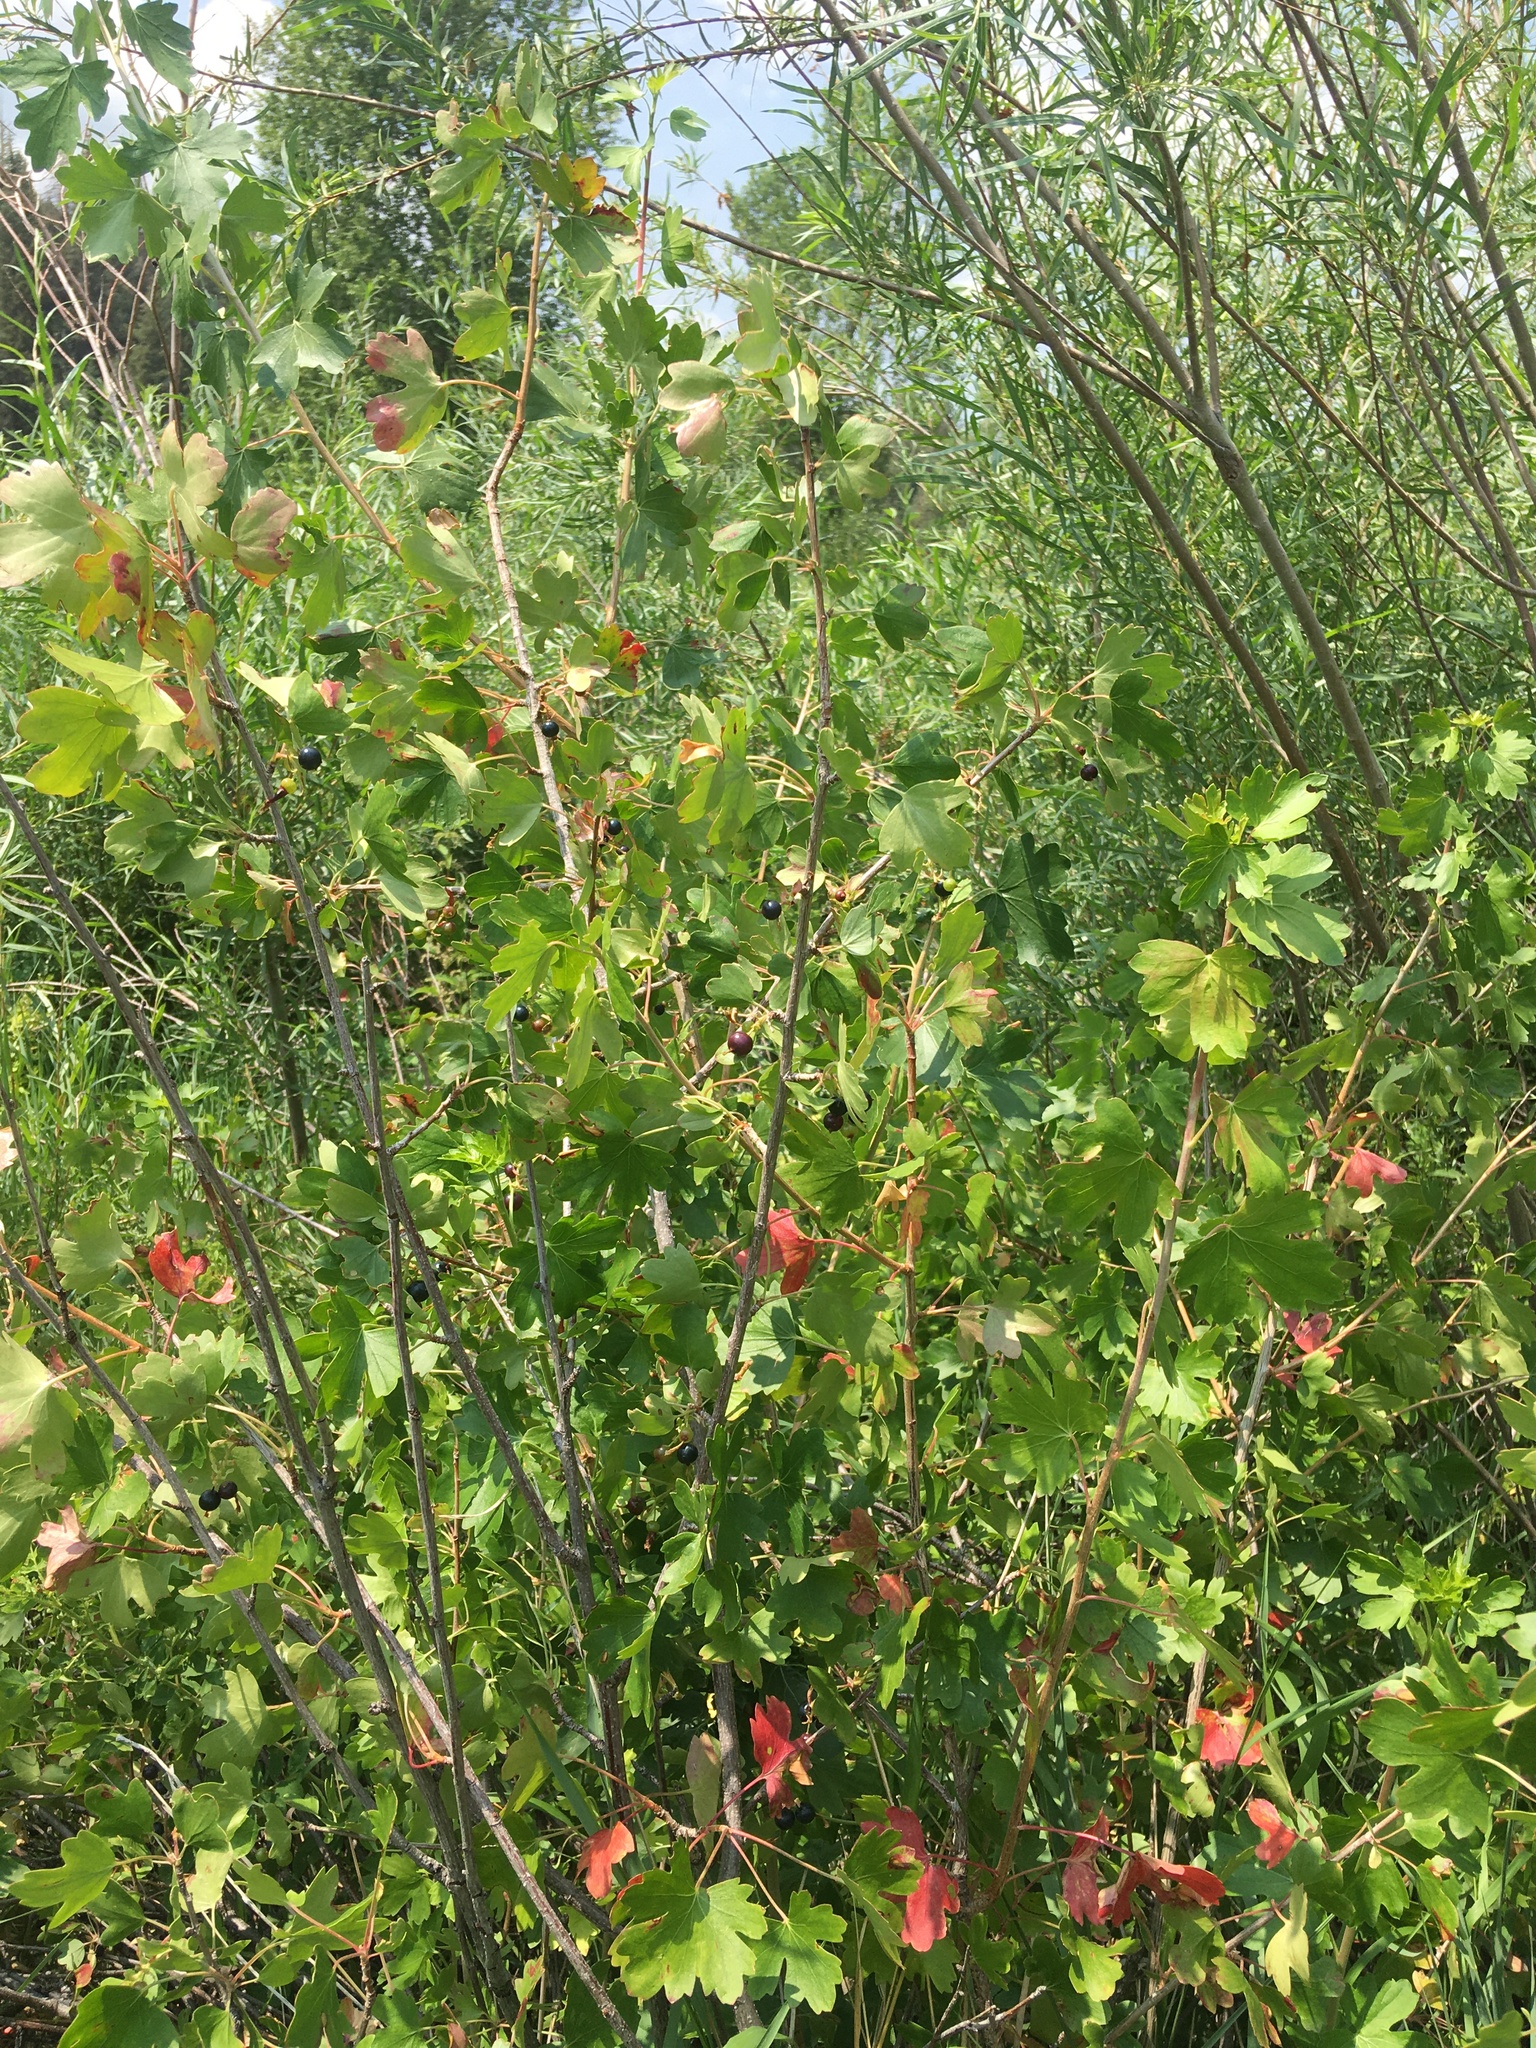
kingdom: Plantae
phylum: Tracheophyta
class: Magnoliopsida
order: Saxifragales
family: Grossulariaceae
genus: Ribes
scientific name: Ribes aureum
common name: Golden currant
